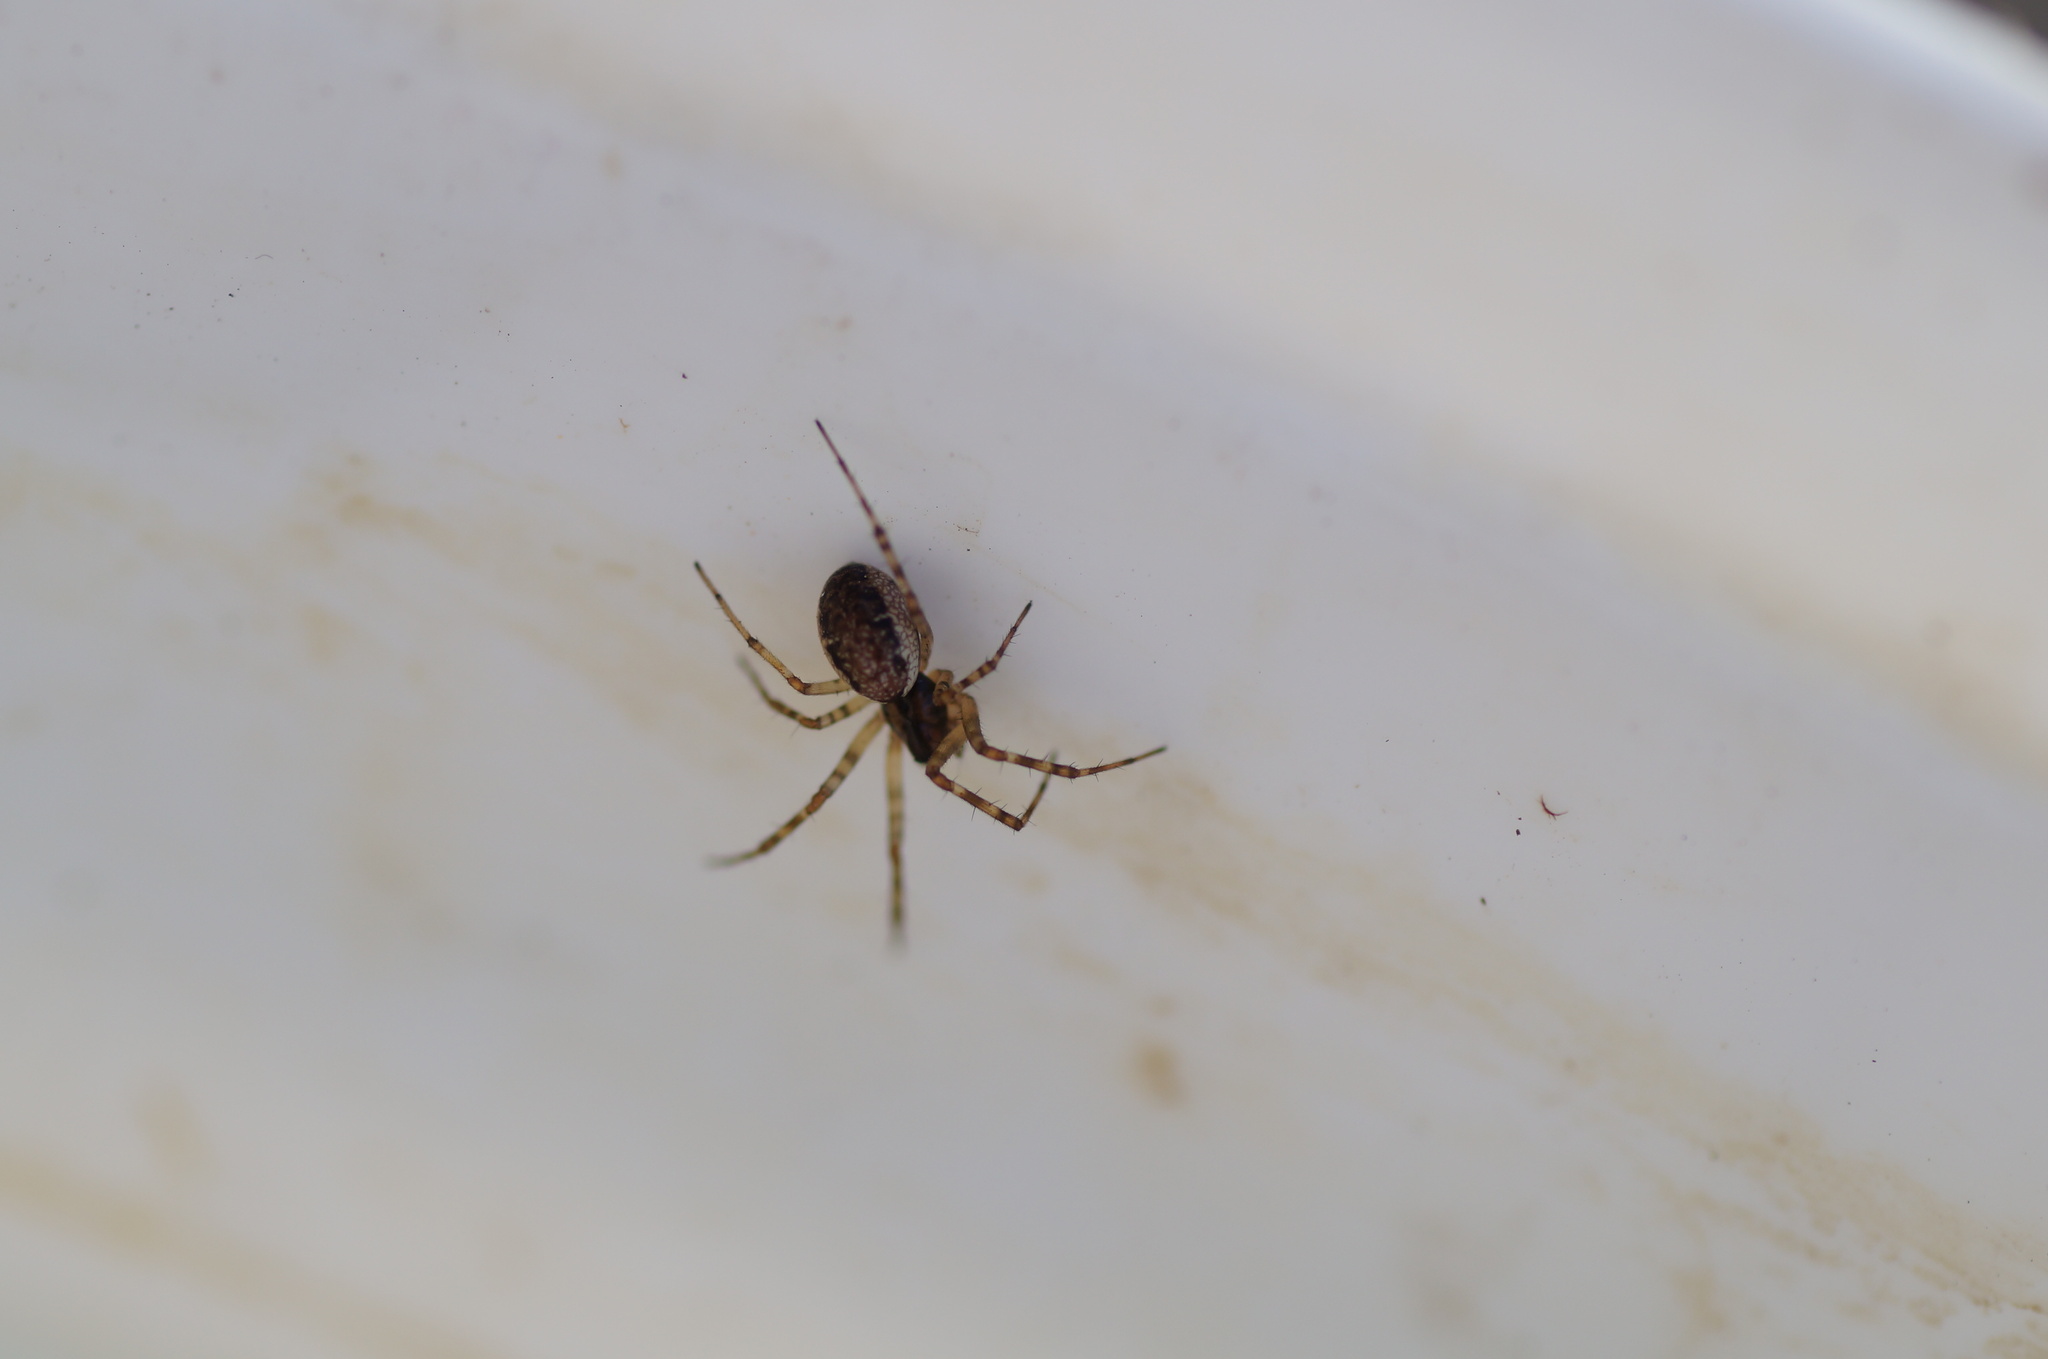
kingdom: Animalia
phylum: Arthropoda
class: Arachnida
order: Araneae
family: Linyphiidae
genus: Neriene
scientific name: Neriene montana
